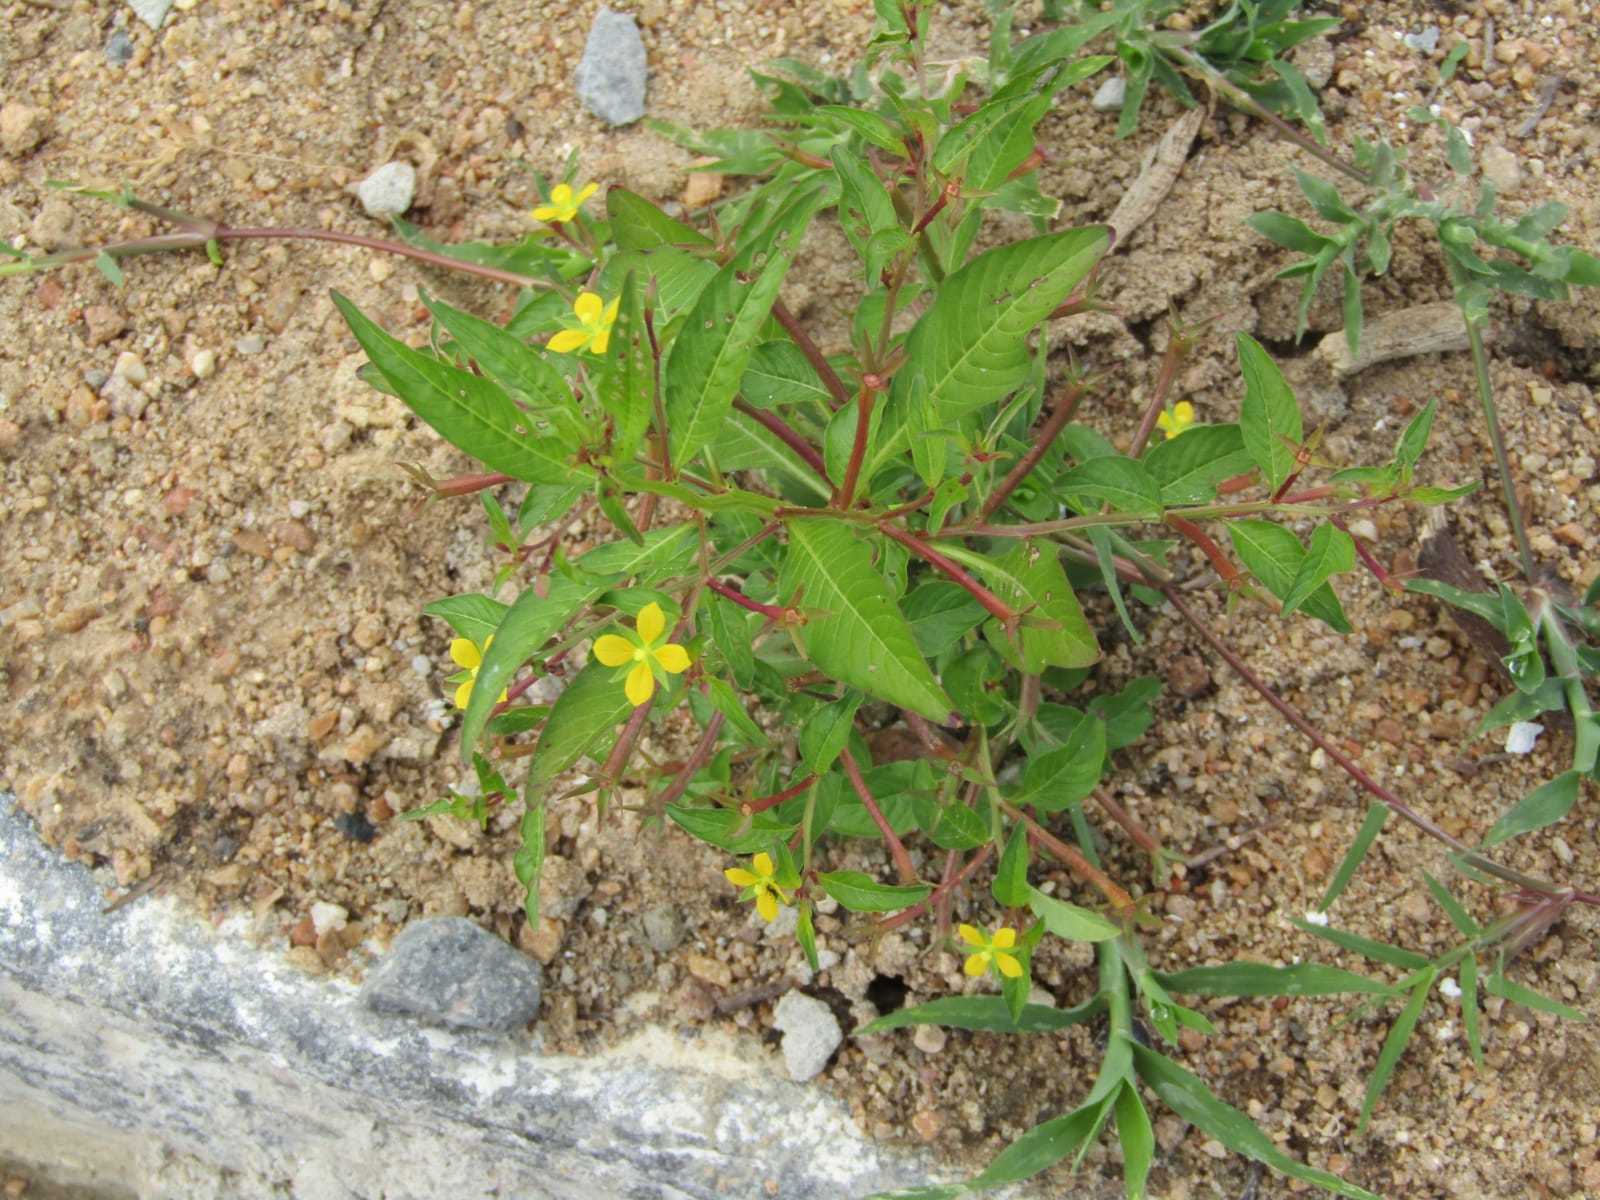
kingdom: Plantae
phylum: Tracheophyta
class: Magnoliopsida
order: Myrtales
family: Onagraceae
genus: Ludwigia
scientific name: Ludwigia hyssopifolia
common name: Linear leaf water primrose
